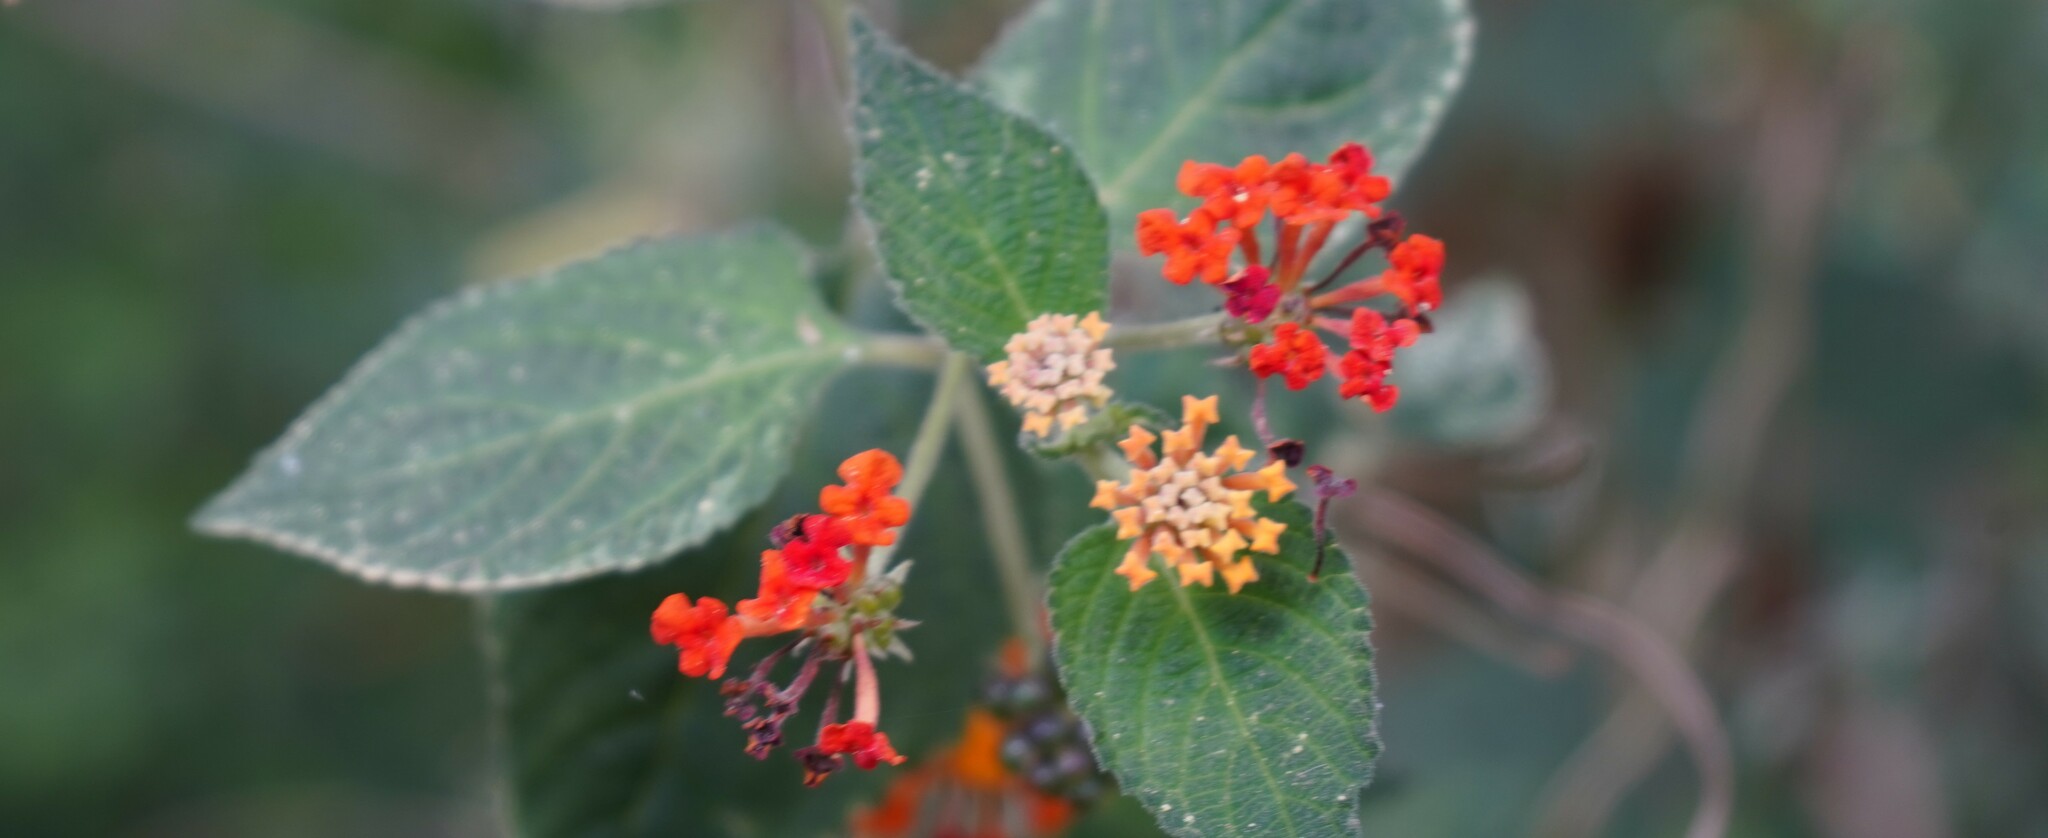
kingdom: Plantae
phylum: Tracheophyta
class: Magnoliopsida
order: Lamiales
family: Verbenaceae
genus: Lantana
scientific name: Lantana camara
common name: Lantana
